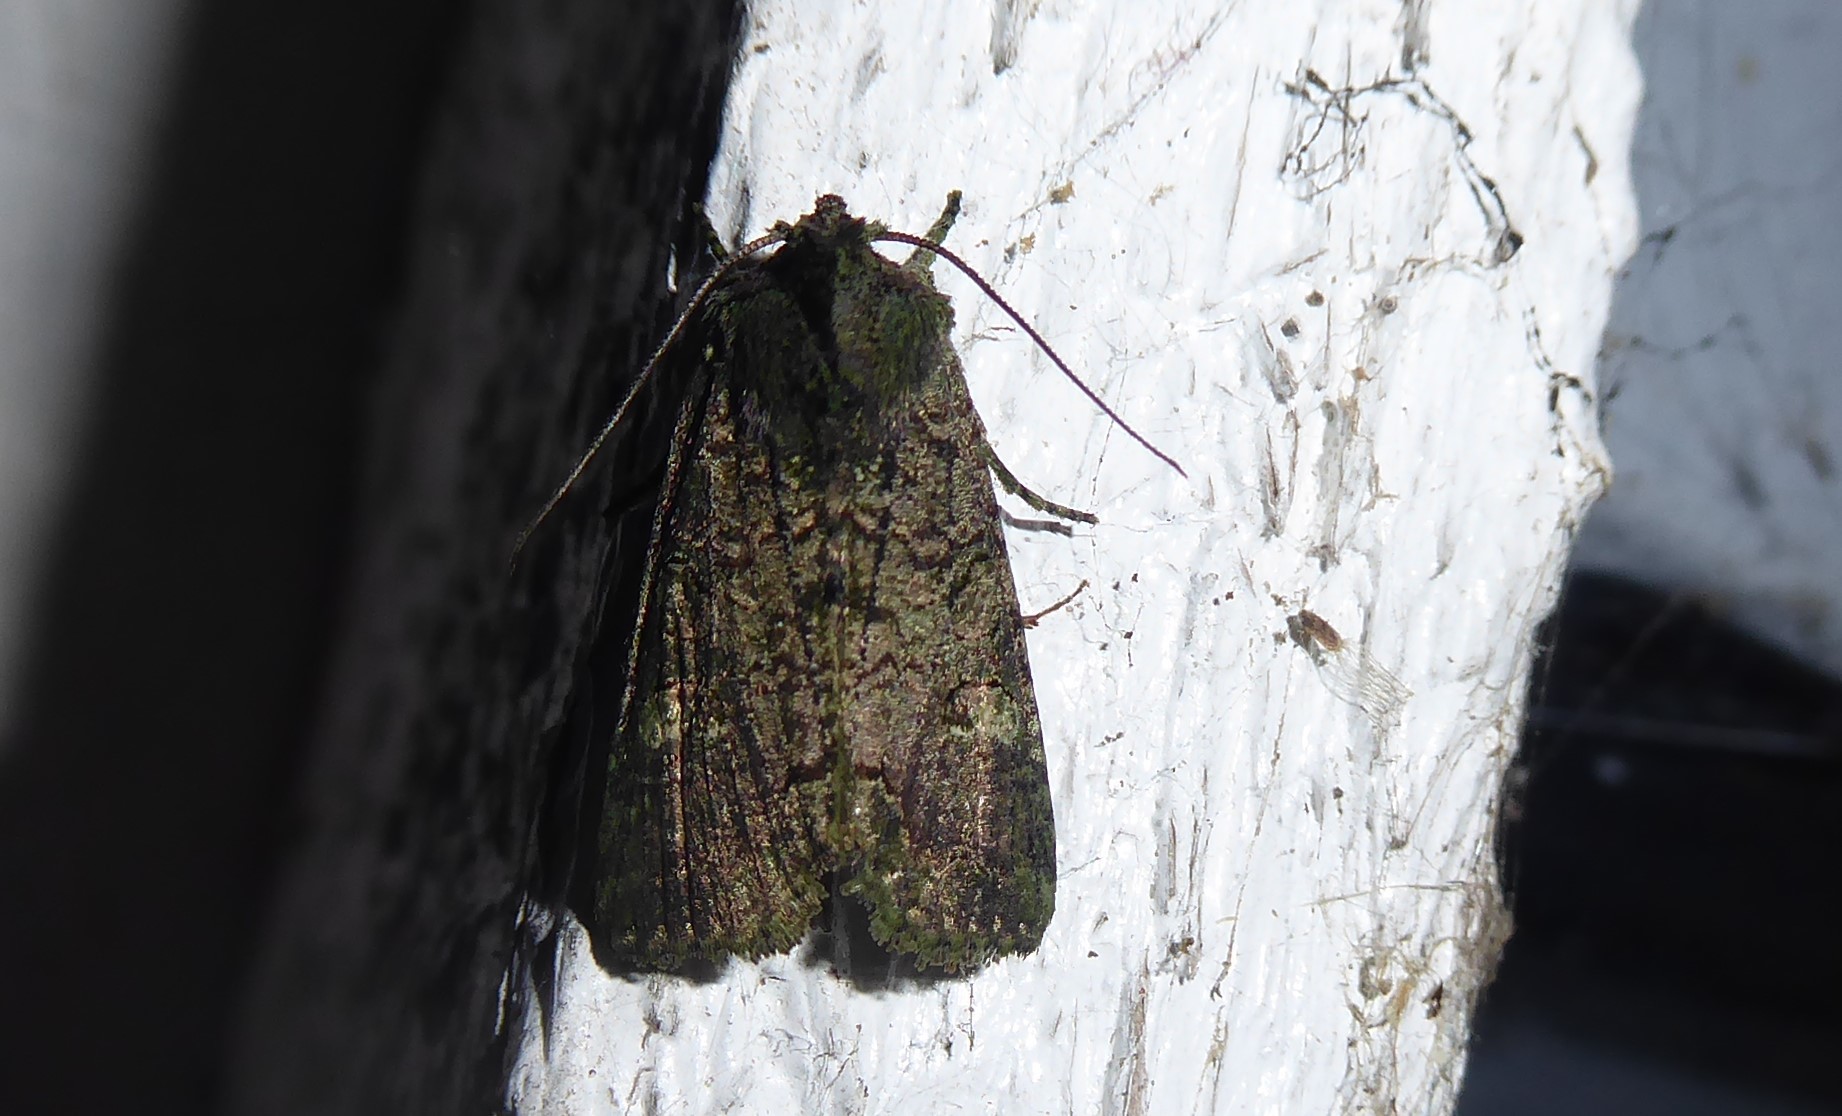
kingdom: Animalia
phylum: Arthropoda
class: Insecta
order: Lepidoptera
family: Noctuidae
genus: Meterana
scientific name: Meterana levis
